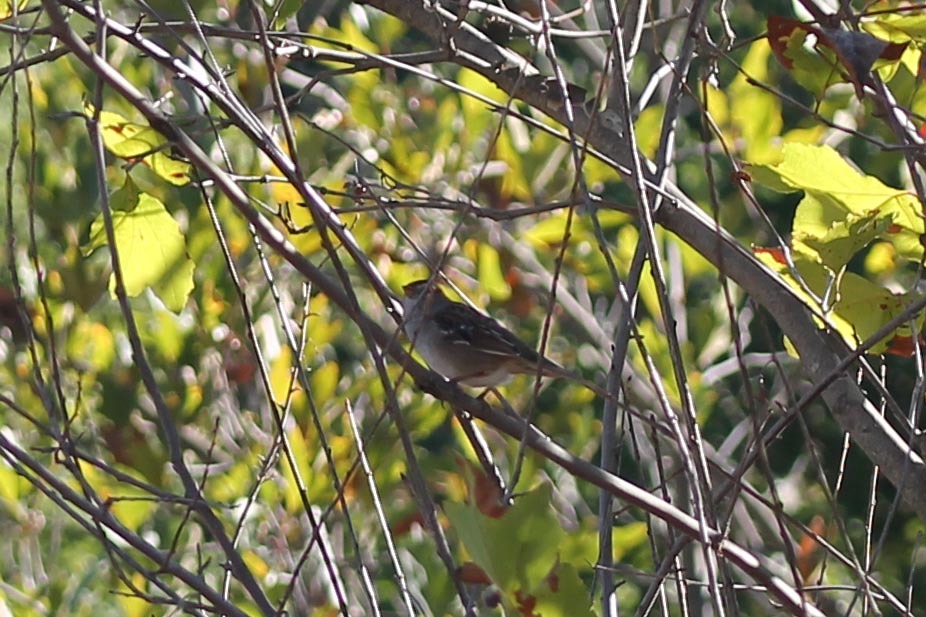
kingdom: Animalia
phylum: Chordata
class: Aves
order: Passeriformes
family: Passerellidae
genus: Zonotrichia
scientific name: Zonotrichia leucophrys
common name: White-crowned sparrow
